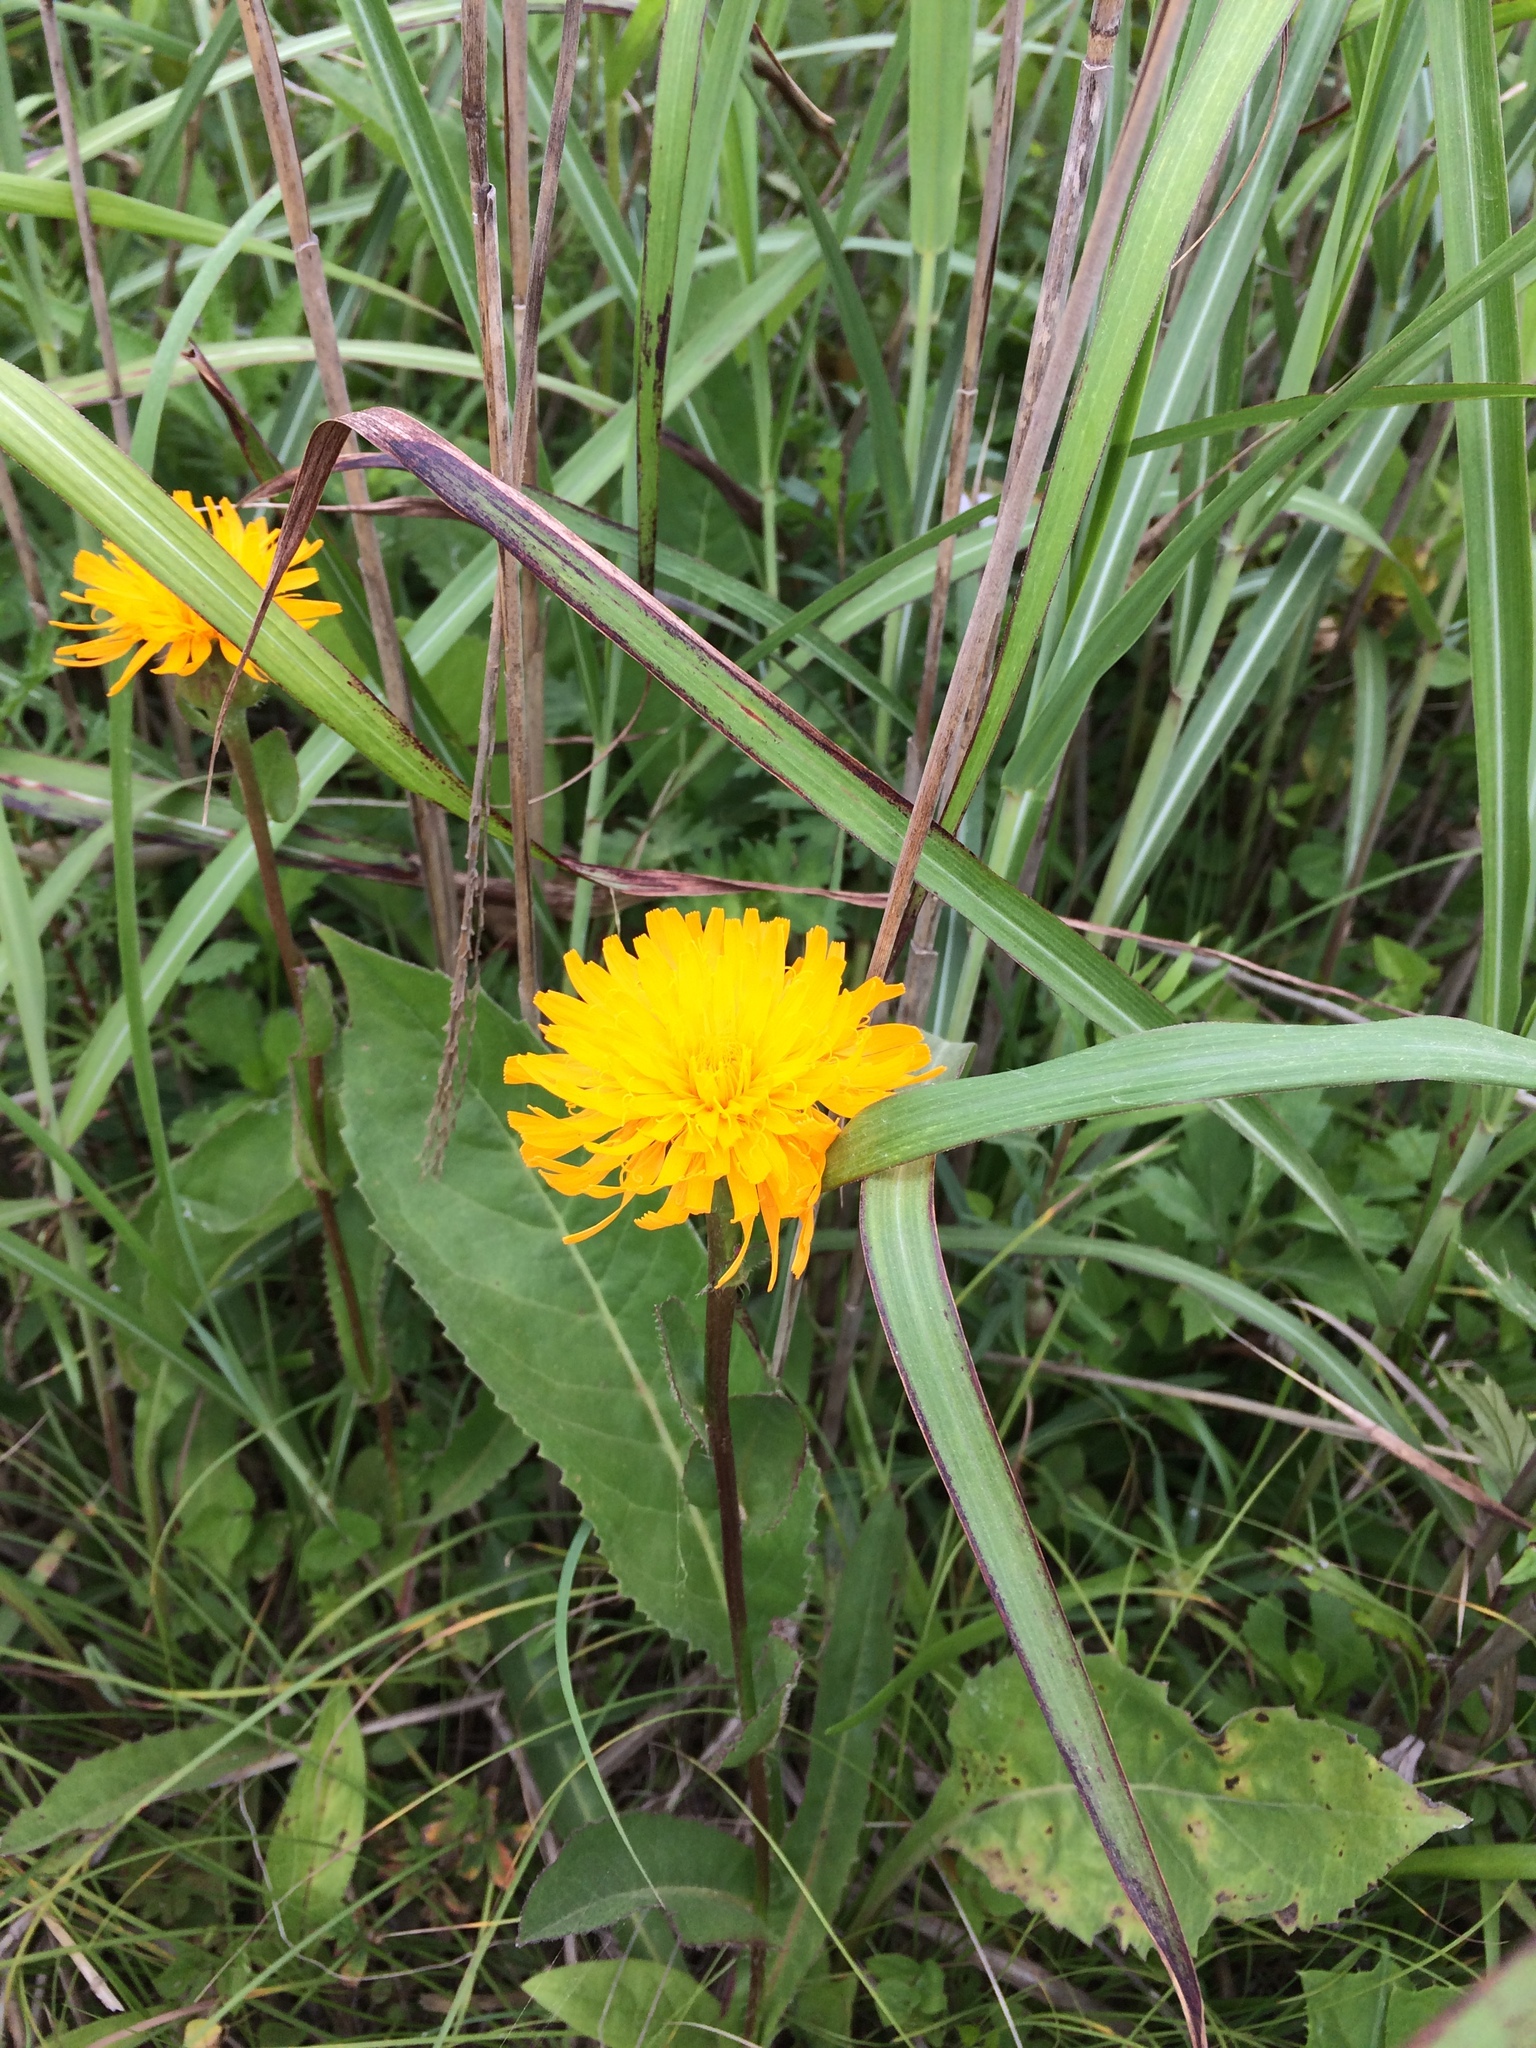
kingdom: Plantae
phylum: Tracheophyta
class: Magnoliopsida
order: Asterales
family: Asteraceae
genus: Trommsdorffia
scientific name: Trommsdorffia ciliata
